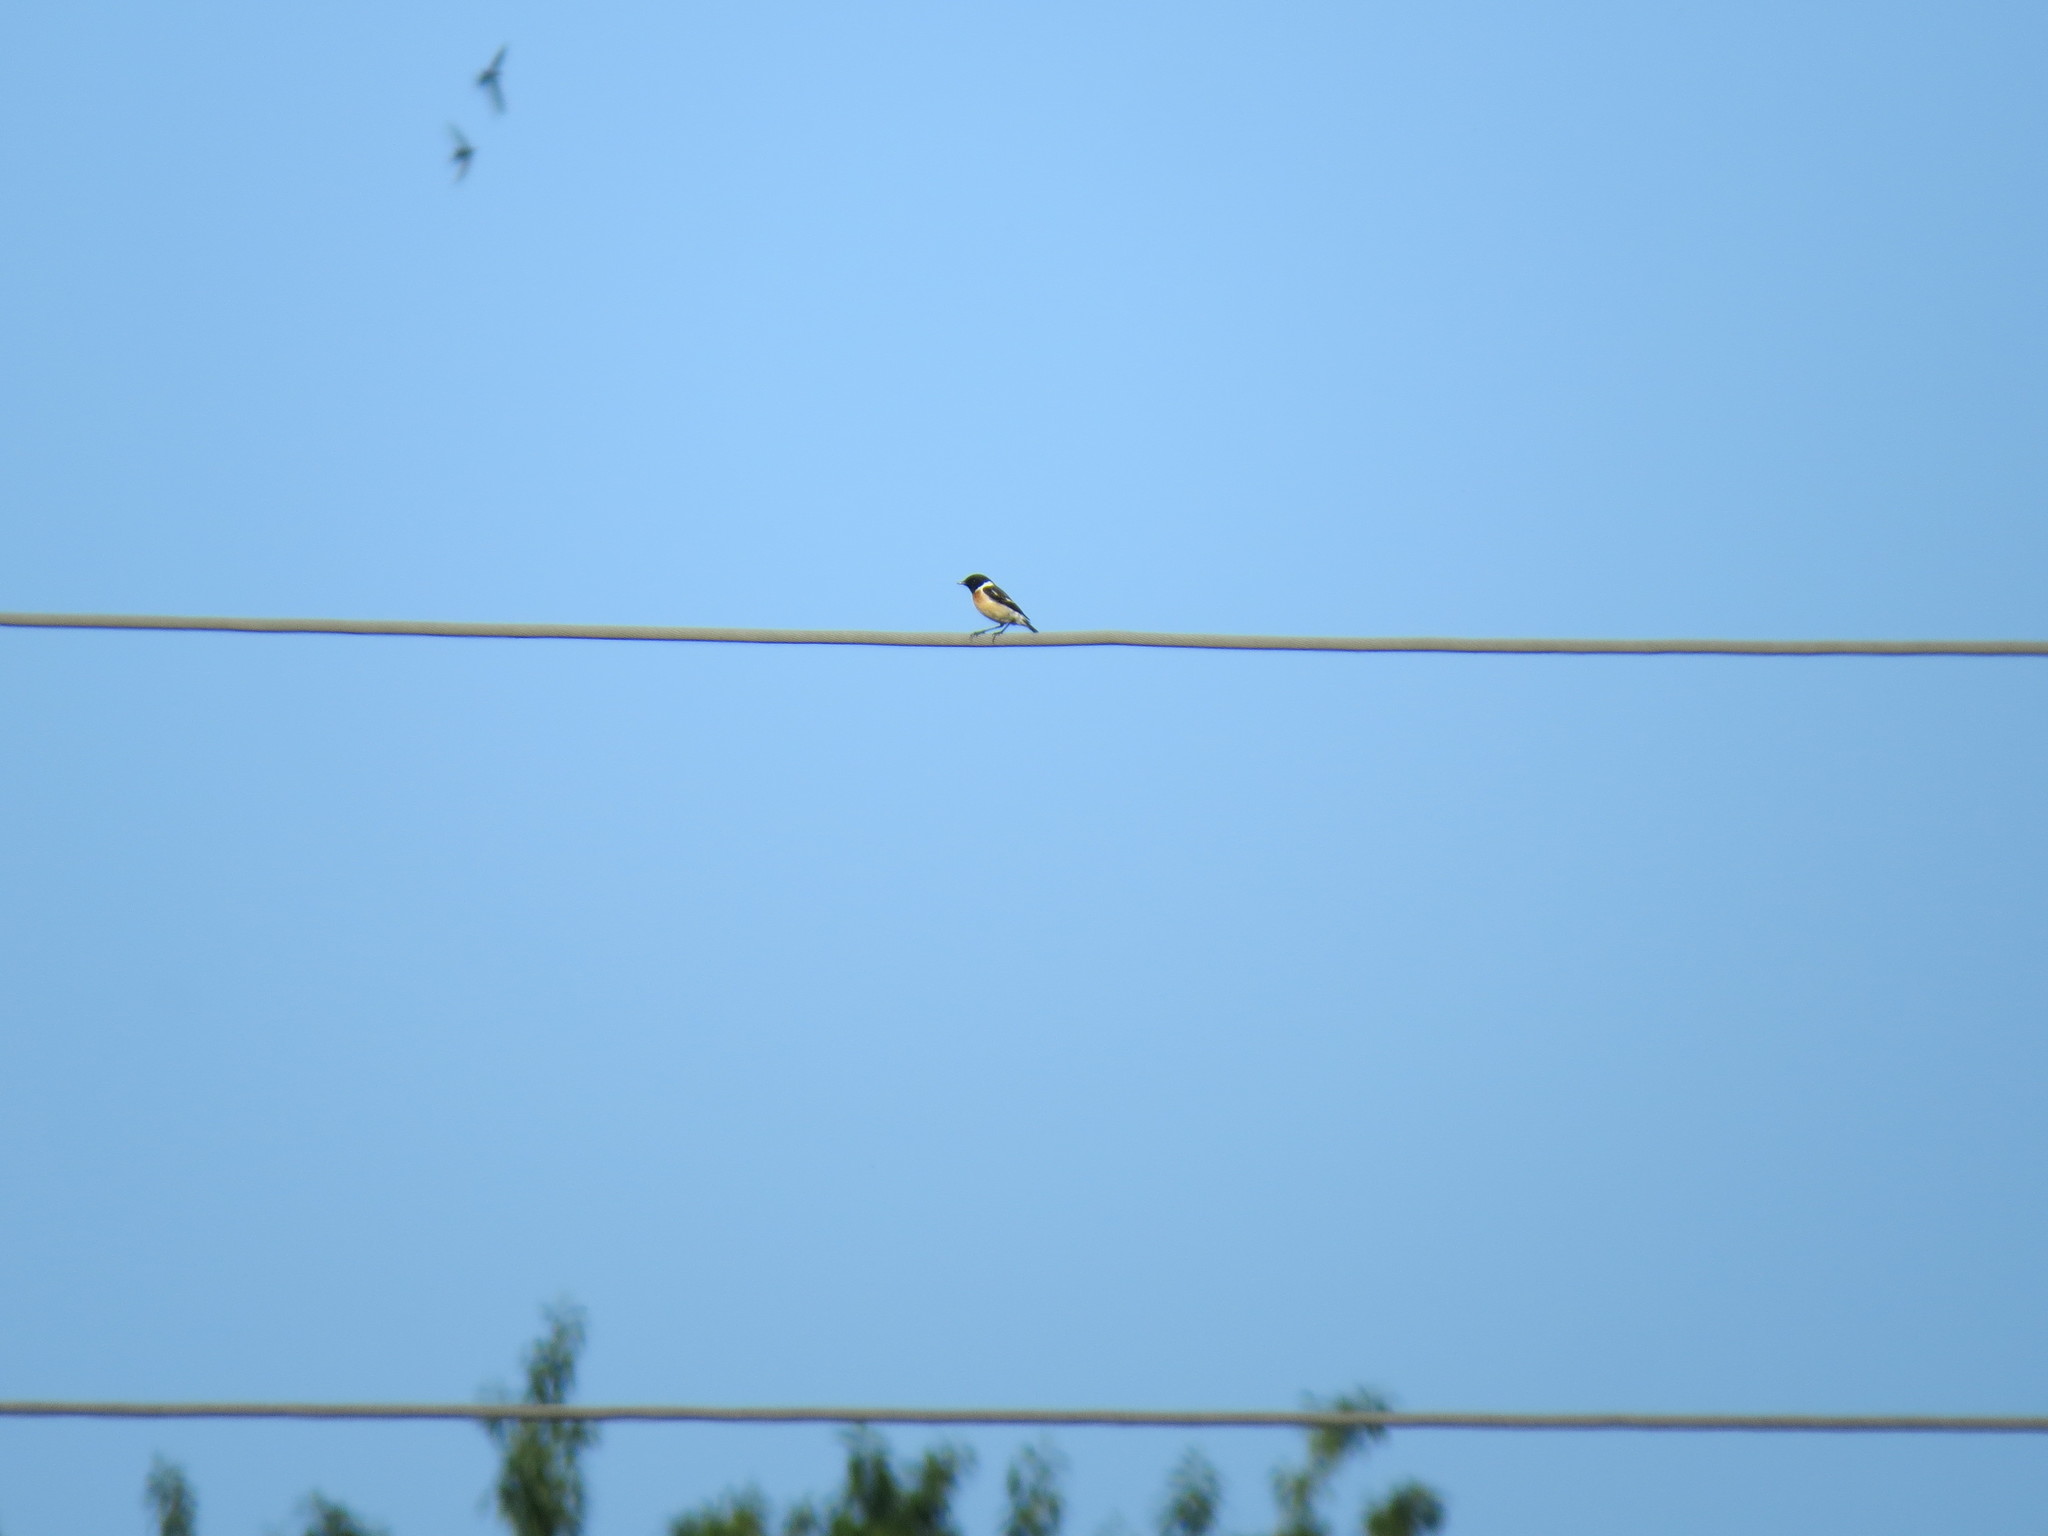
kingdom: Animalia
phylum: Chordata
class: Aves
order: Passeriformes
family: Muscicapidae
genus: Saxicola
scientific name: Saxicola maurus
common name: Siberian stonechat
